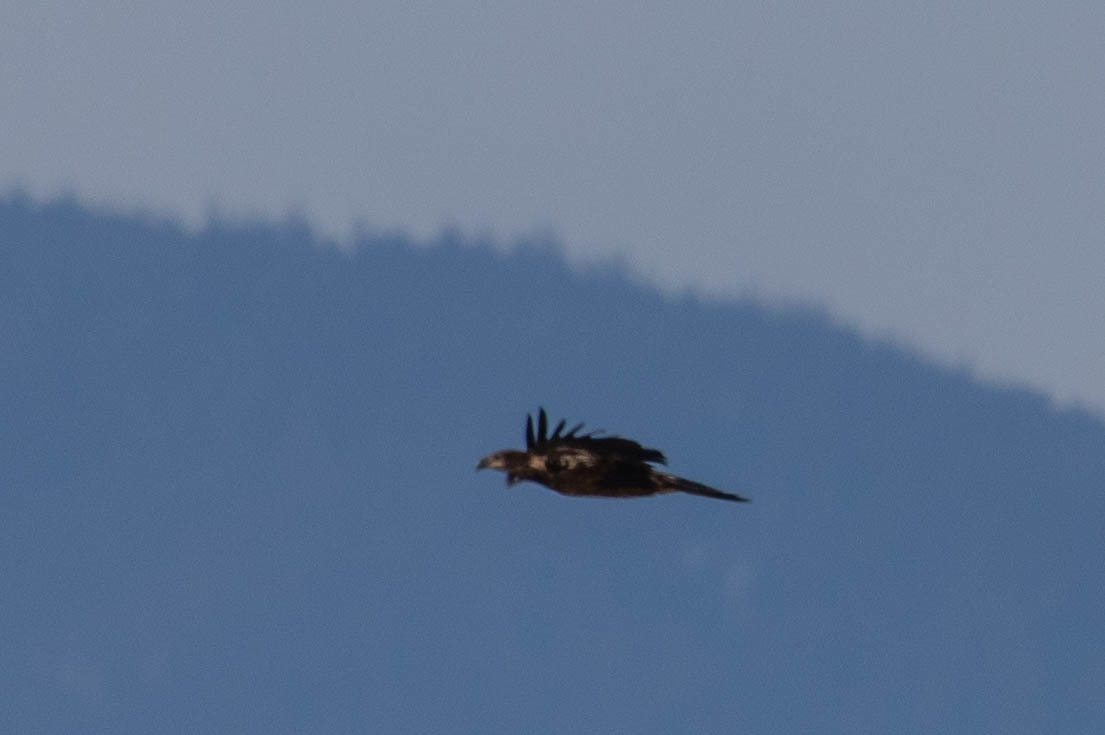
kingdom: Animalia
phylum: Chordata
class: Aves
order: Accipitriformes
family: Accipitridae
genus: Haliaeetus
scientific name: Haliaeetus leucocephalus
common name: Bald eagle
